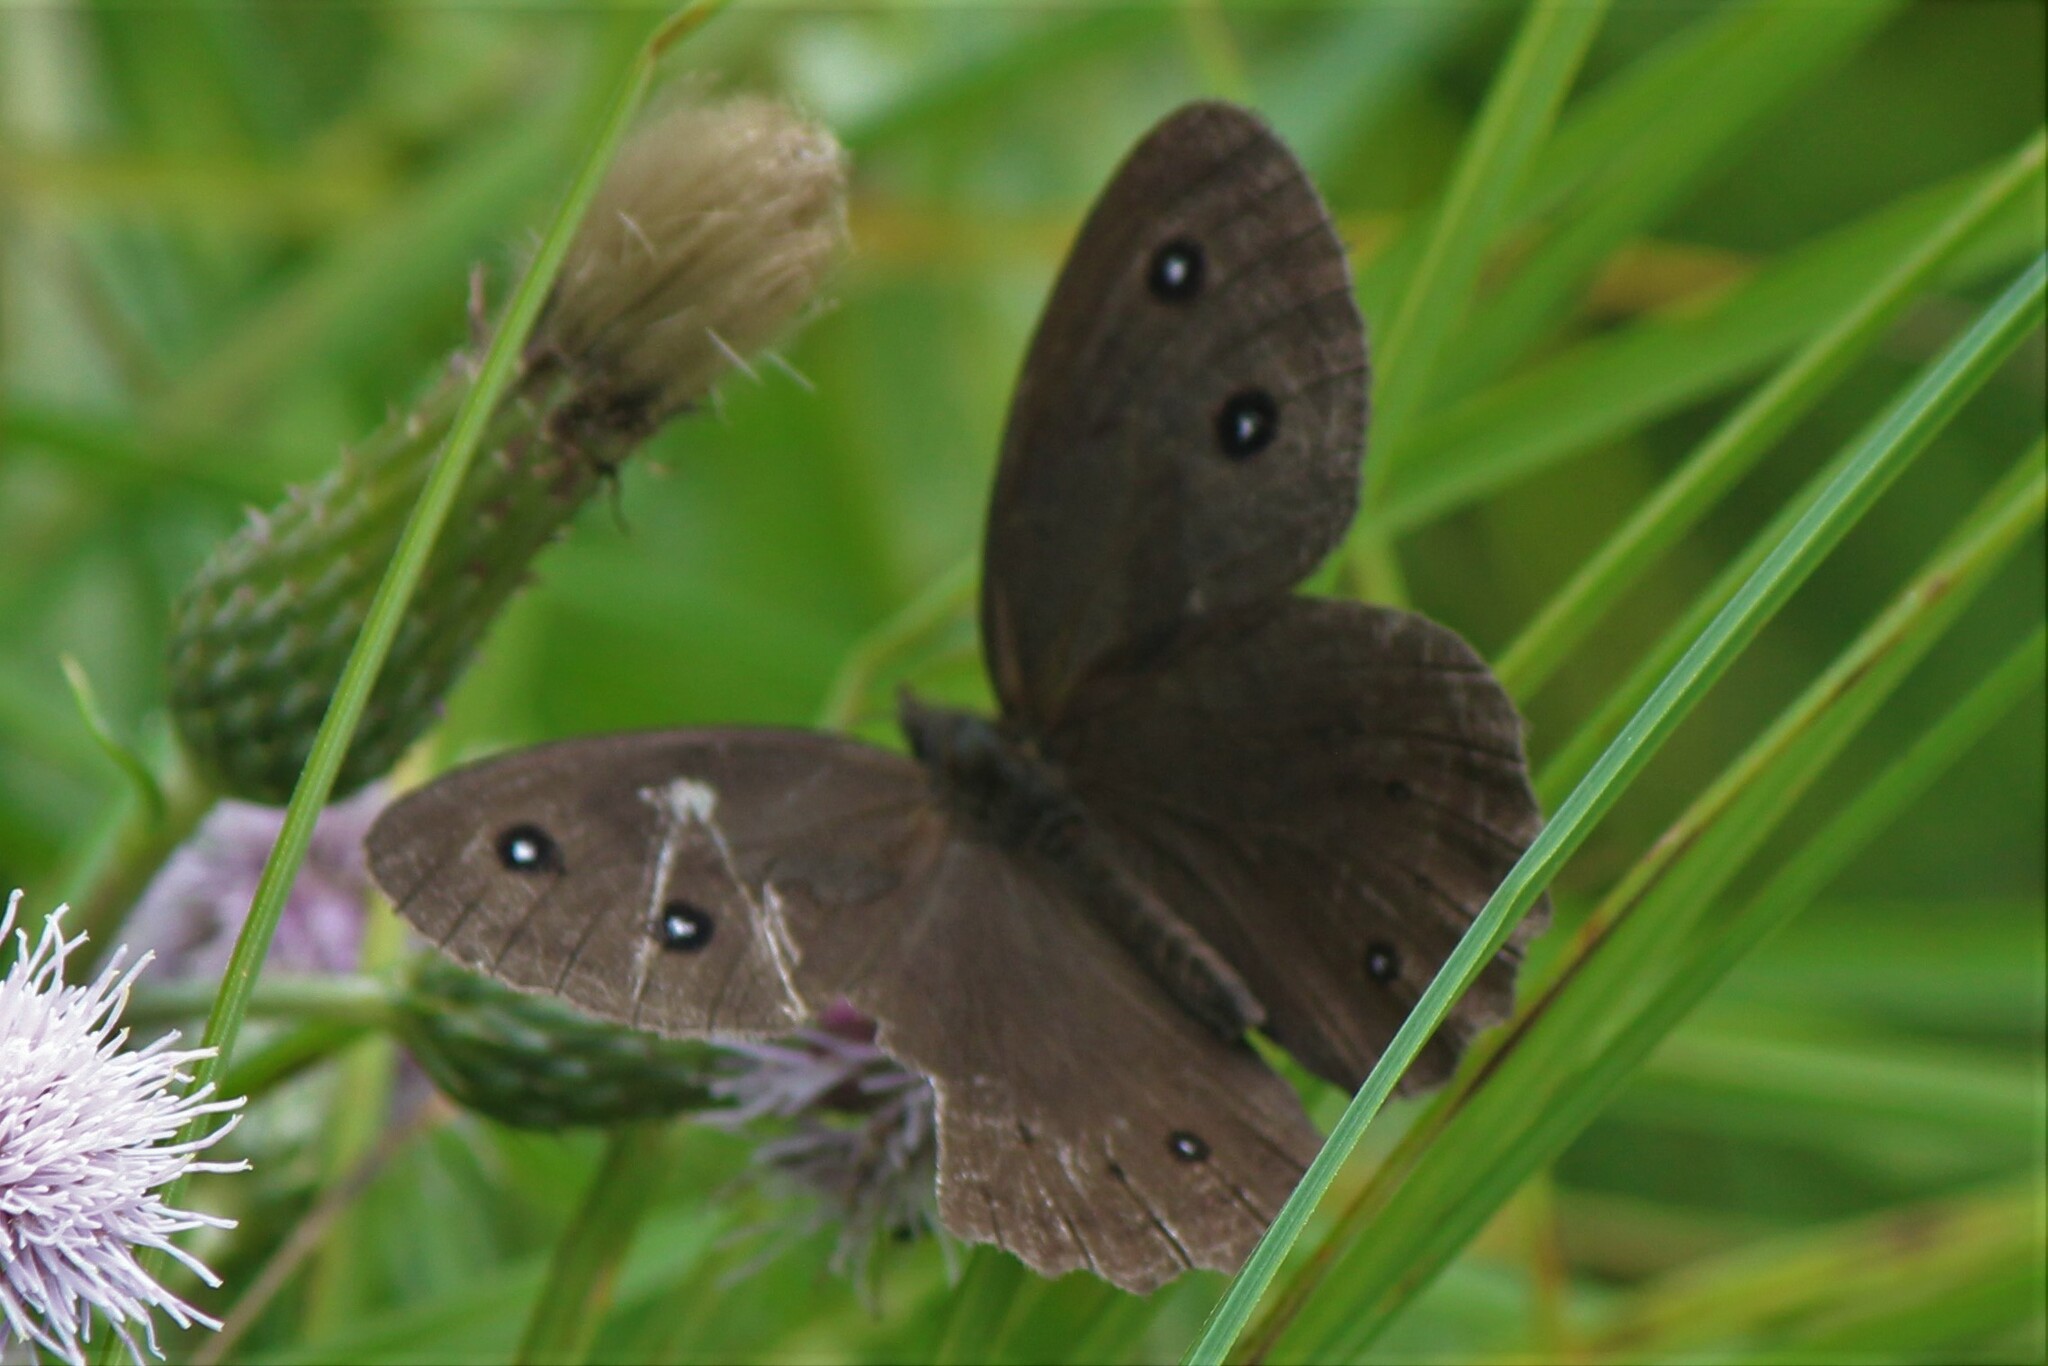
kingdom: Animalia
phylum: Arthropoda
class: Insecta
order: Lepidoptera
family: Nymphalidae
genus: Cercyonis
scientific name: Cercyonis pegala
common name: Common wood-nymph
